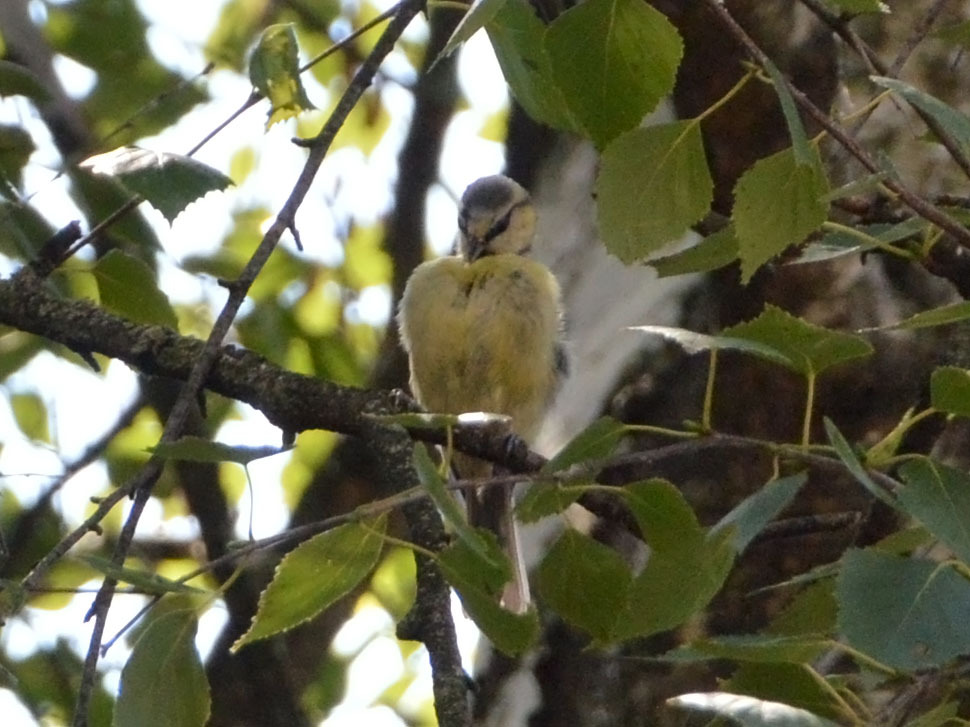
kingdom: Animalia
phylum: Chordata
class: Aves
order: Passeriformes
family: Paridae
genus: Cyanistes
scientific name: Cyanistes caeruleus
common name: Eurasian blue tit
